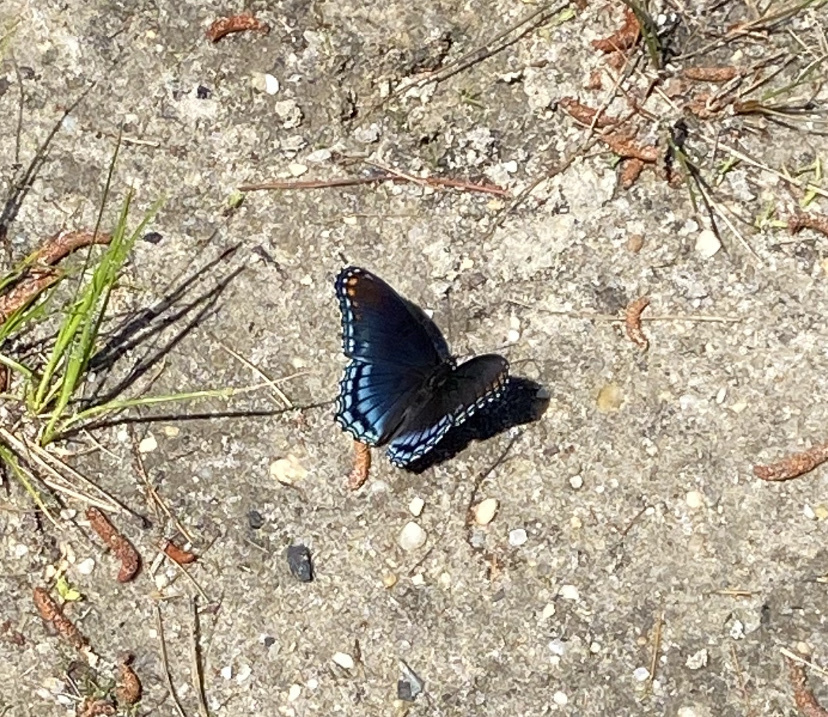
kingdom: Animalia
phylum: Arthropoda
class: Insecta
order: Lepidoptera
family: Nymphalidae
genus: Limenitis
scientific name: Limenitis astyanax
